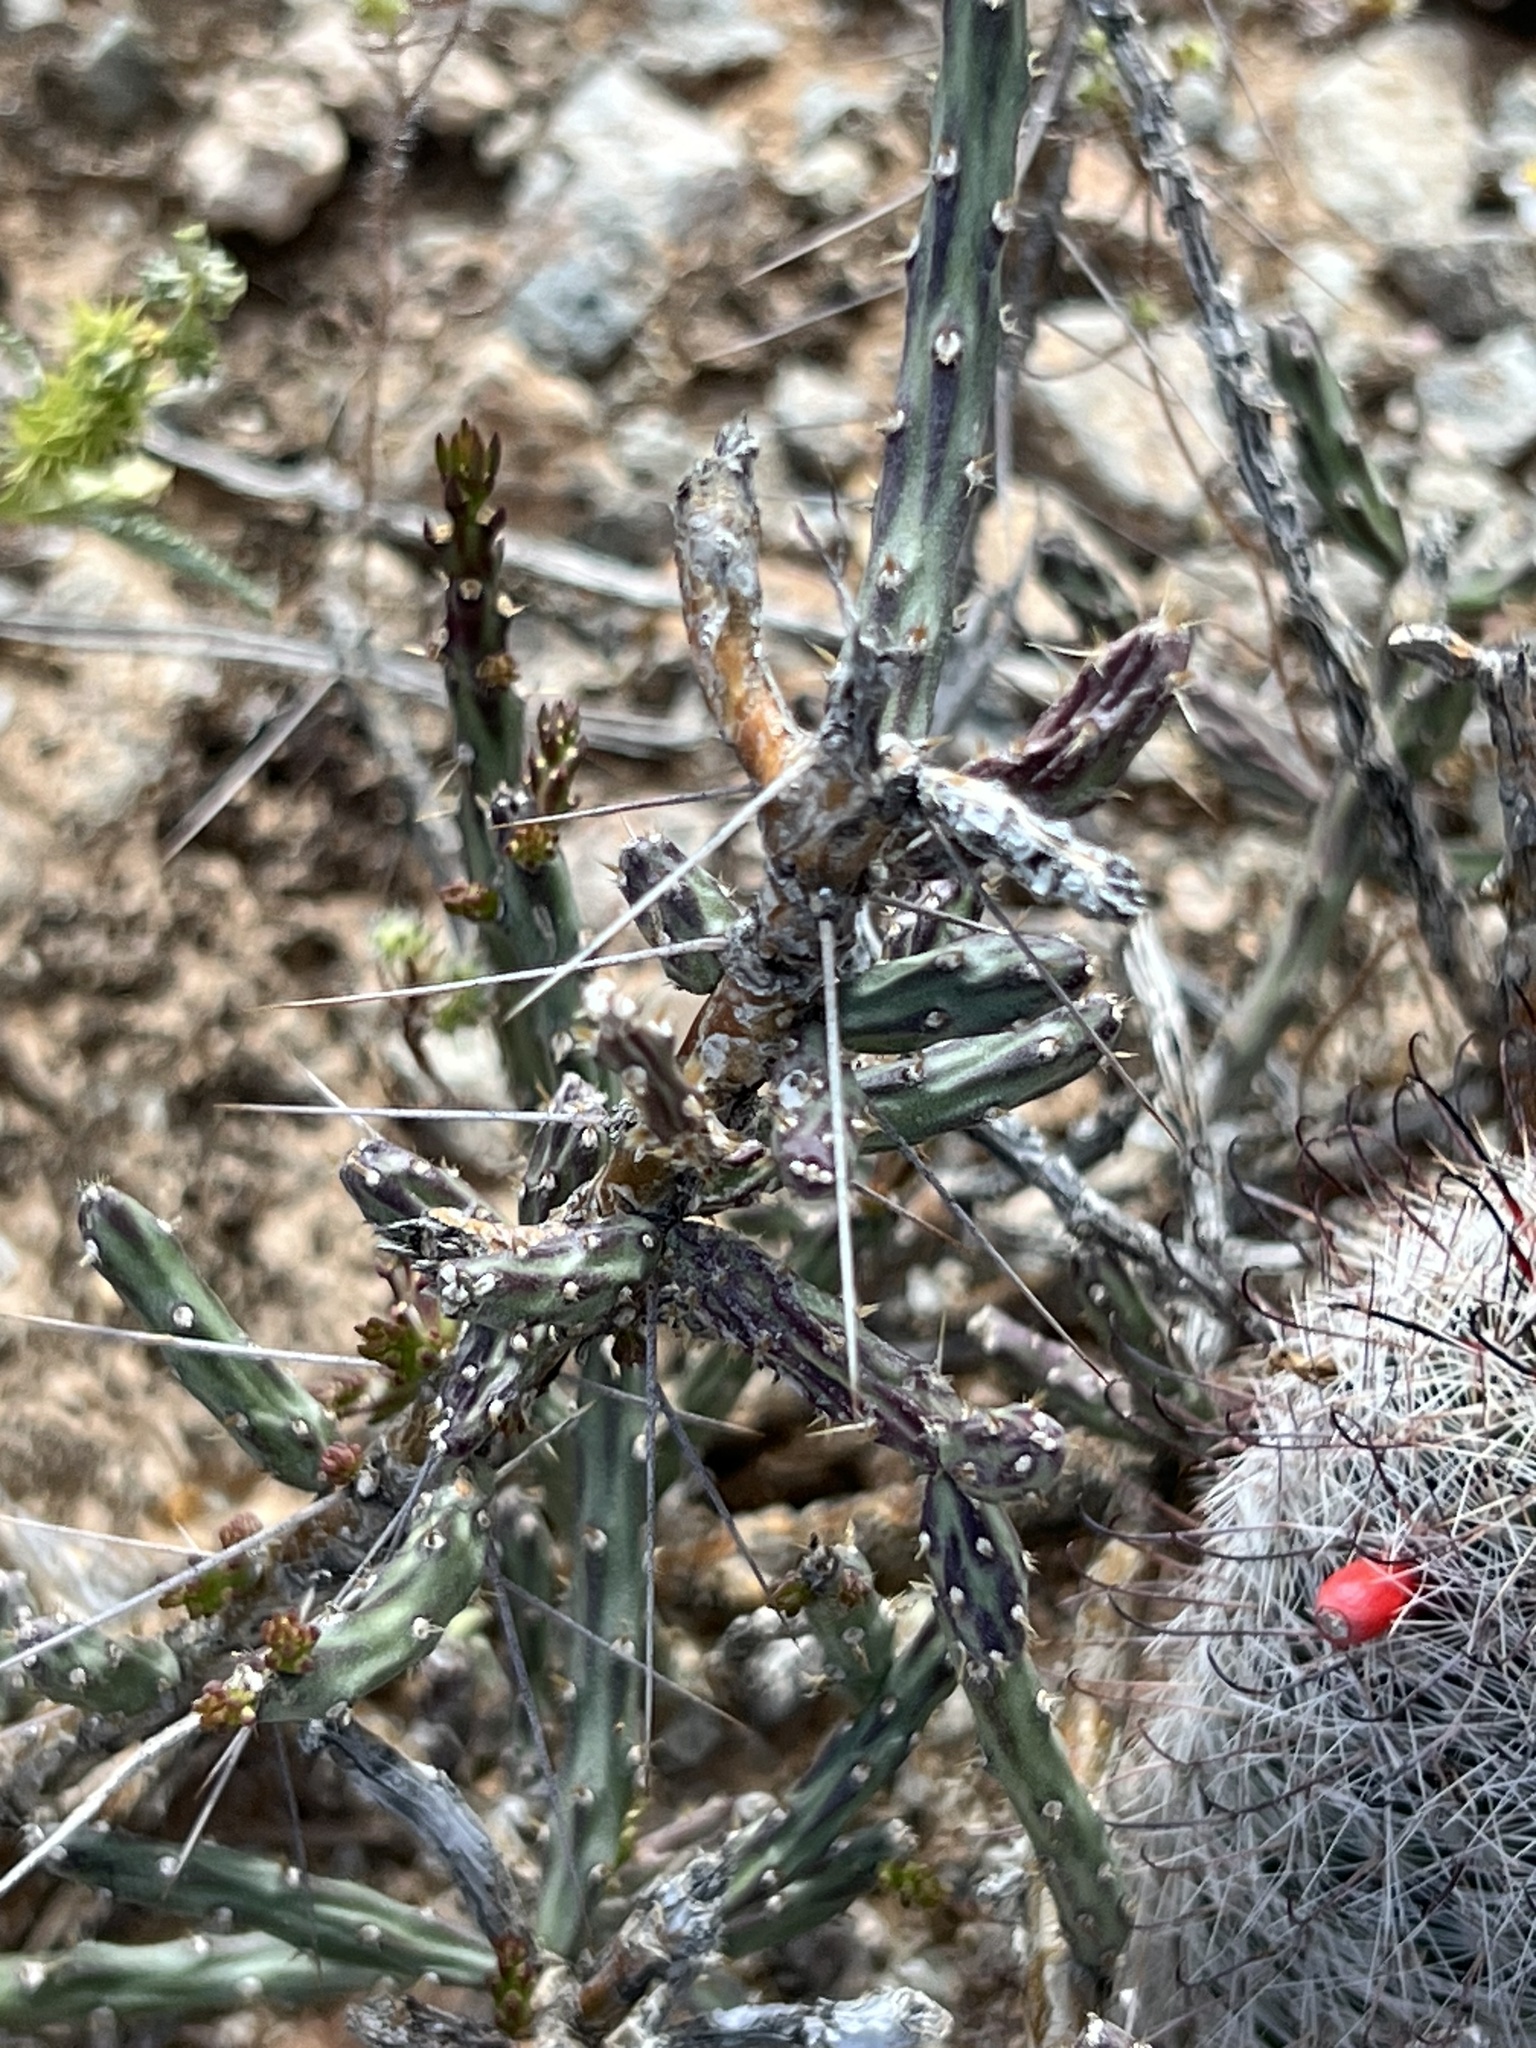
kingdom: Plantae
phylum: Tracheophyta
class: Magnoliopsida
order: Caryophyllales
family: Cactaceae
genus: Cylindropuntia
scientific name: Cylindropuntia leptocaulis
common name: Christmas cactus
